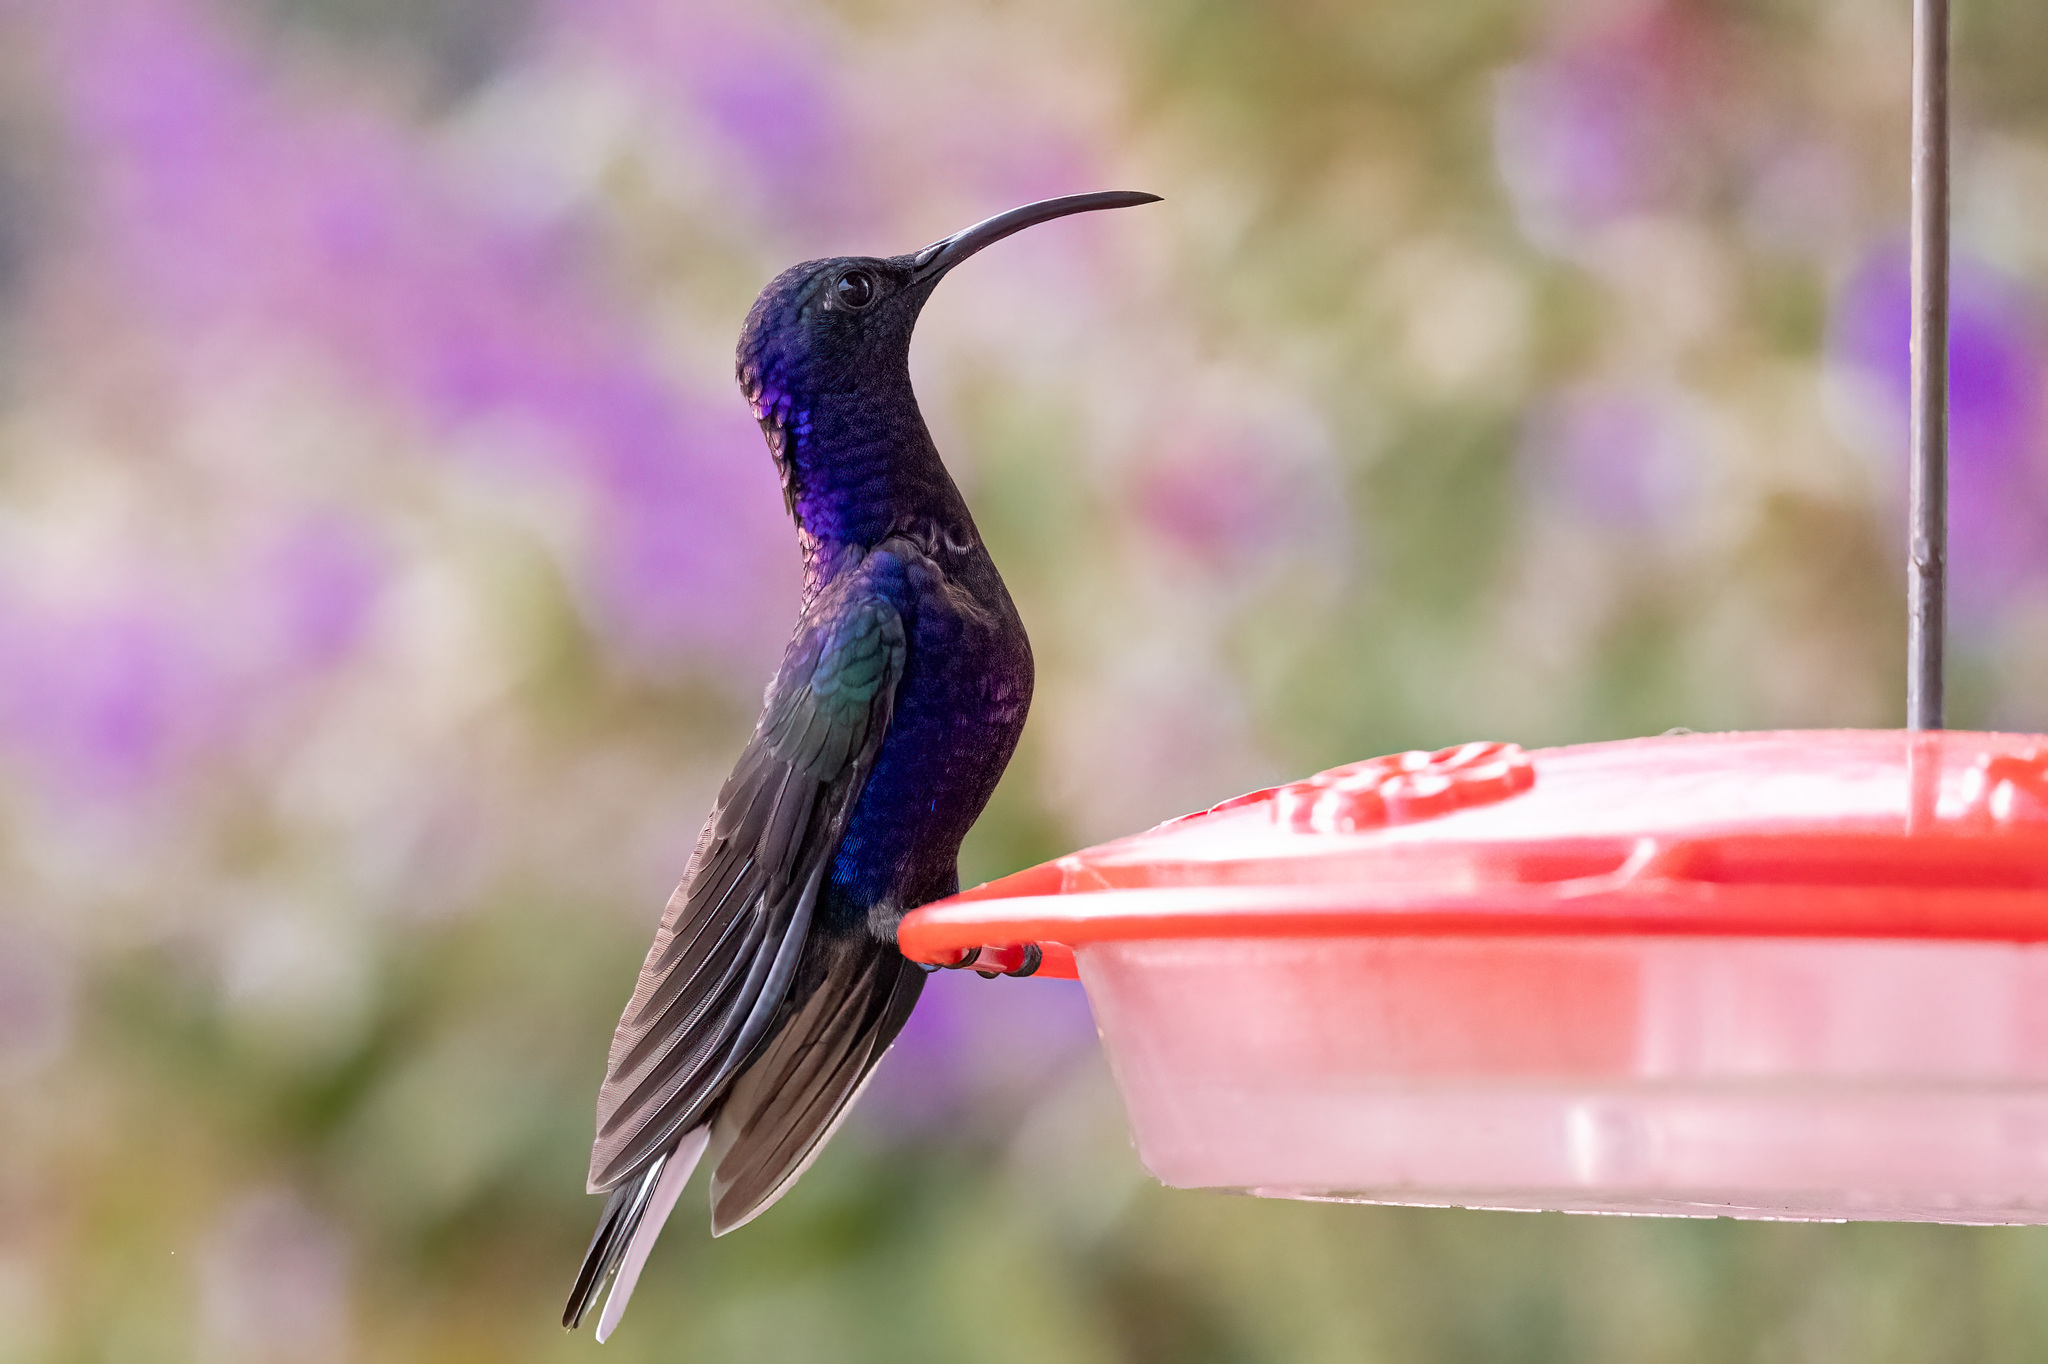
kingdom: Animalia
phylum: Chordata
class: Aves
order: Apodiformes
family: Trochilidae
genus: Campylopterus
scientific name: Campylopterus hemileucurus
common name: Violet sabrewing
